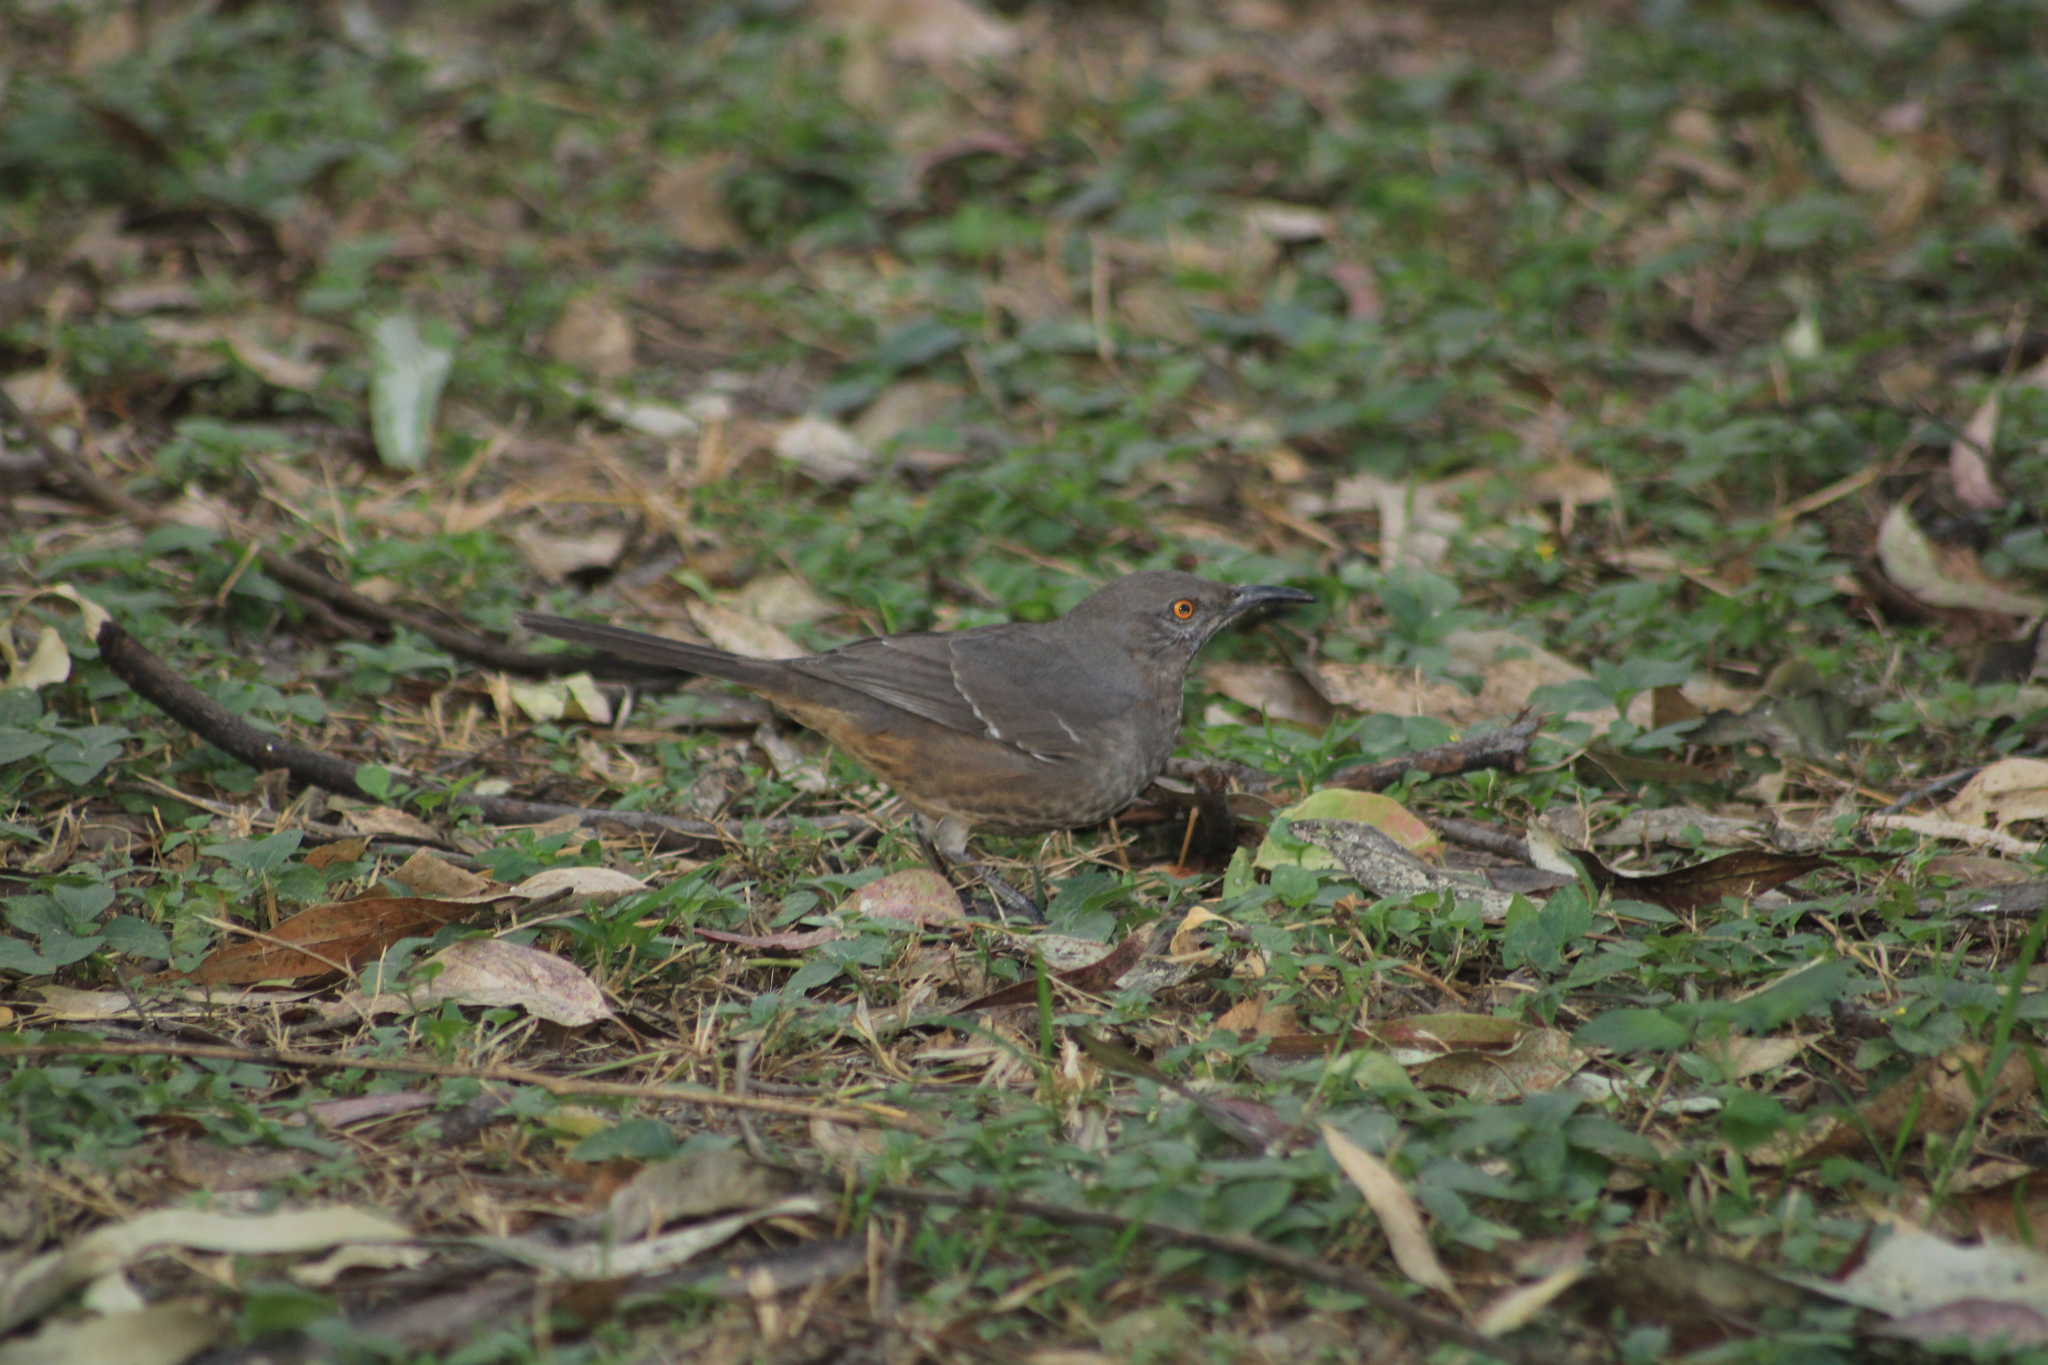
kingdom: Animalia
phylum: Chordata
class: Aves
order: Passeriformes
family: Mimidae
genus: Toxostoma
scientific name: Toxostoma curvirostre
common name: Curve-billed thrasher
